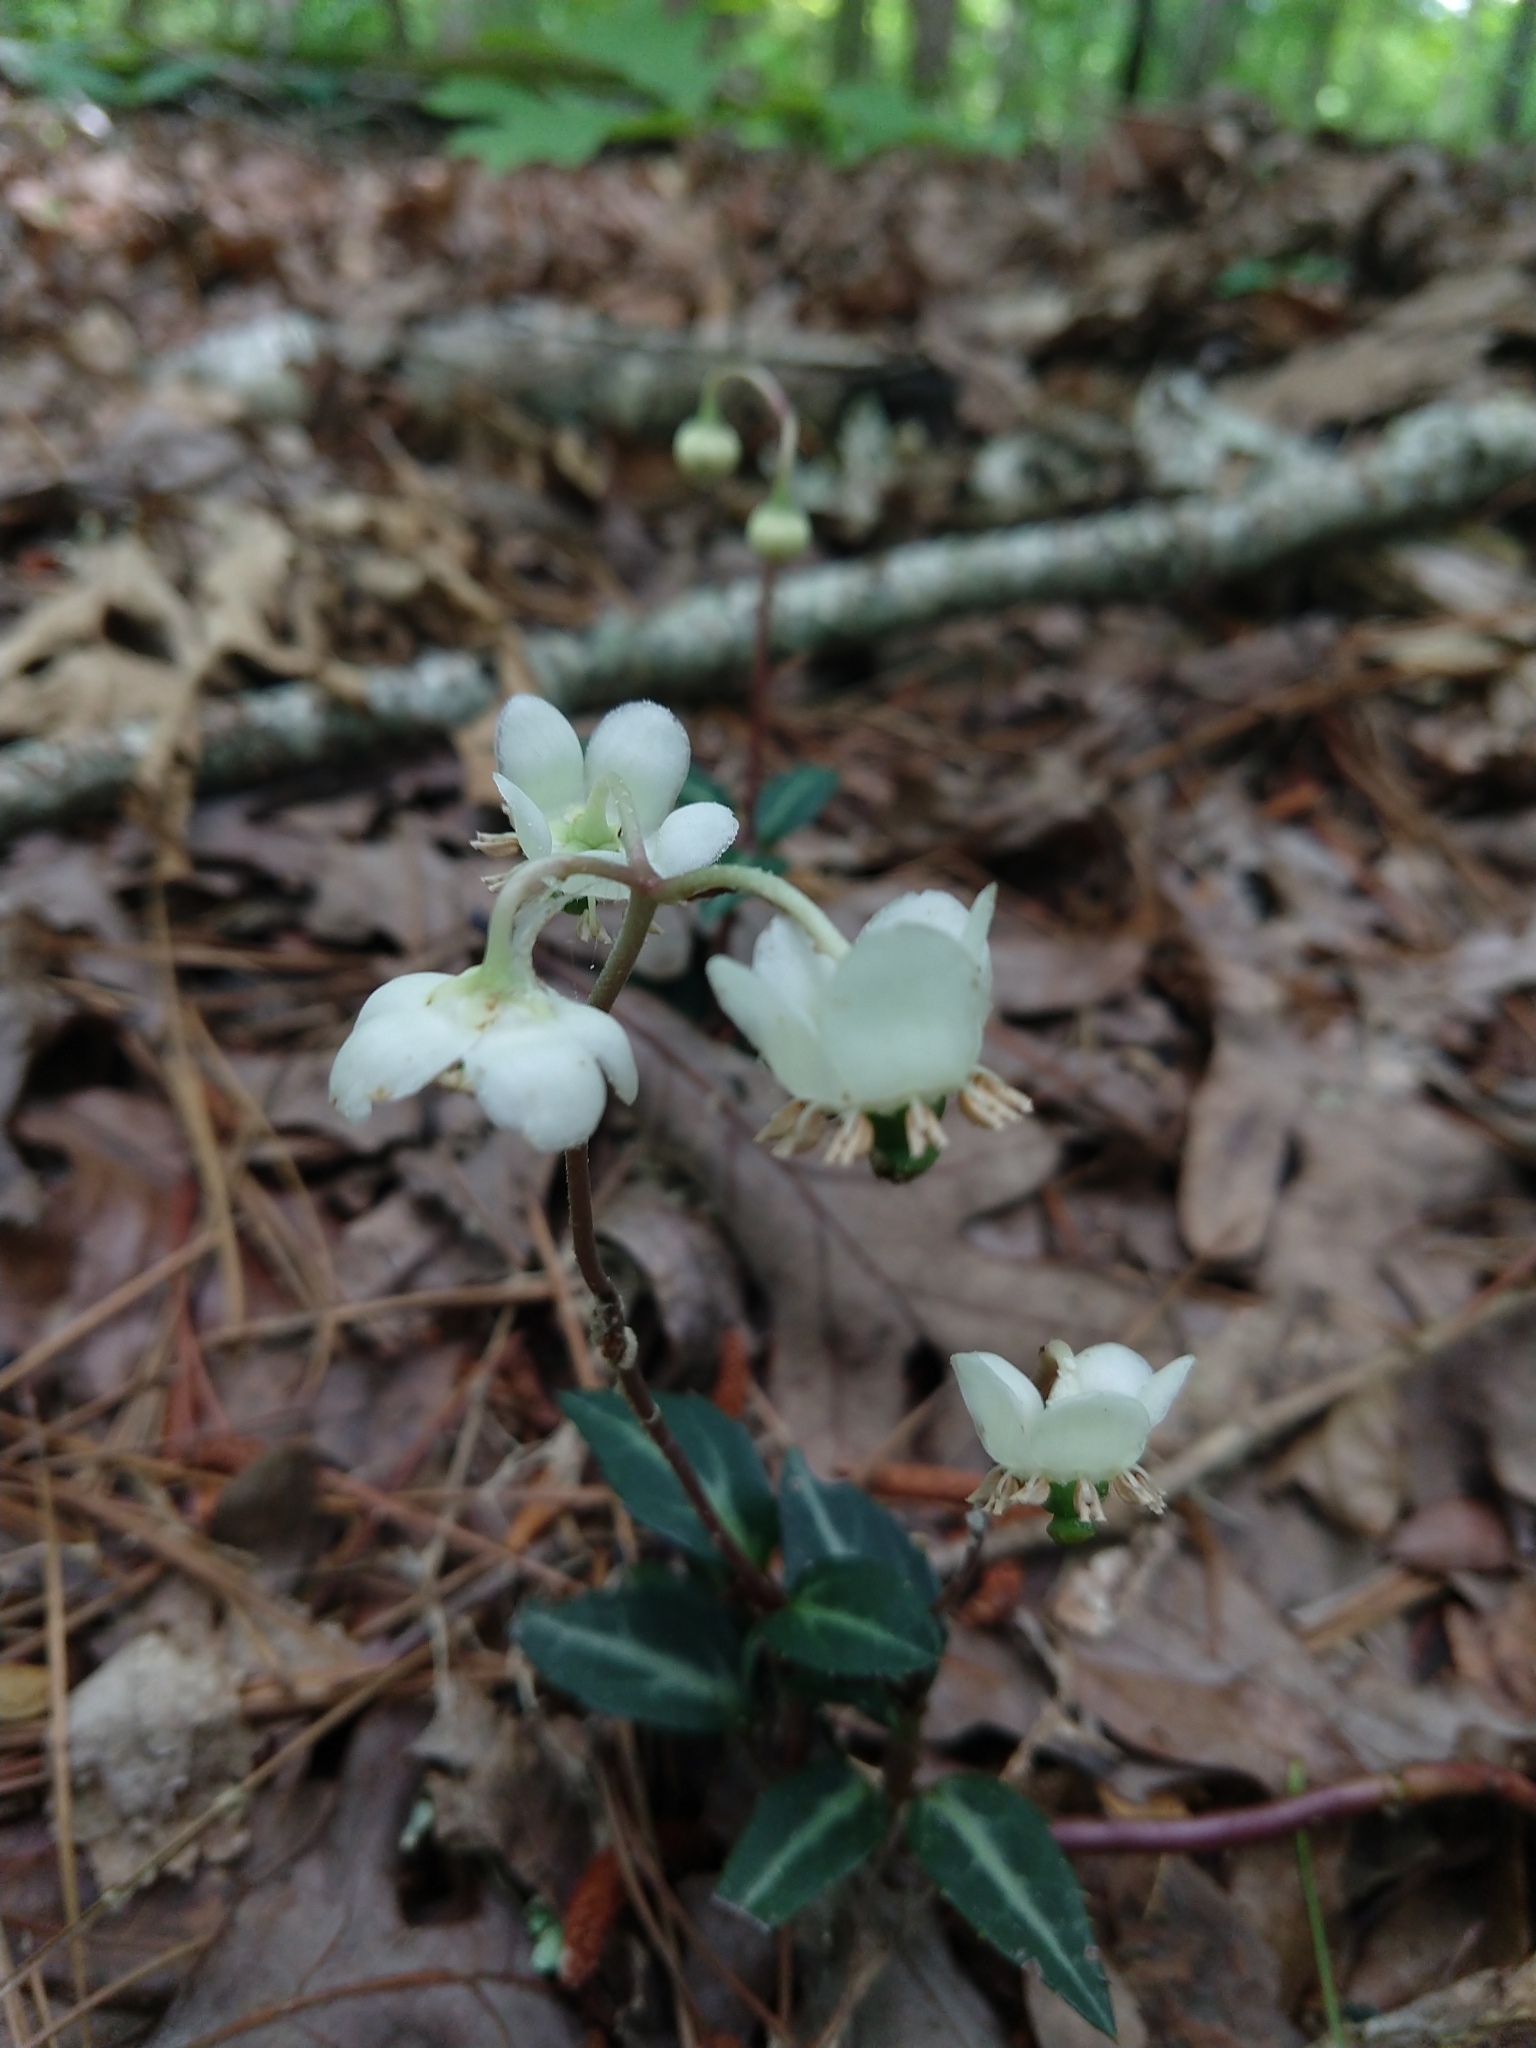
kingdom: Plantae
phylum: Tracheophyta
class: Magnoliopsida
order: Ericales
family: Ericaceae
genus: Chimaphila
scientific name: Chimaphila maculata
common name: Spotted pipsissewa
